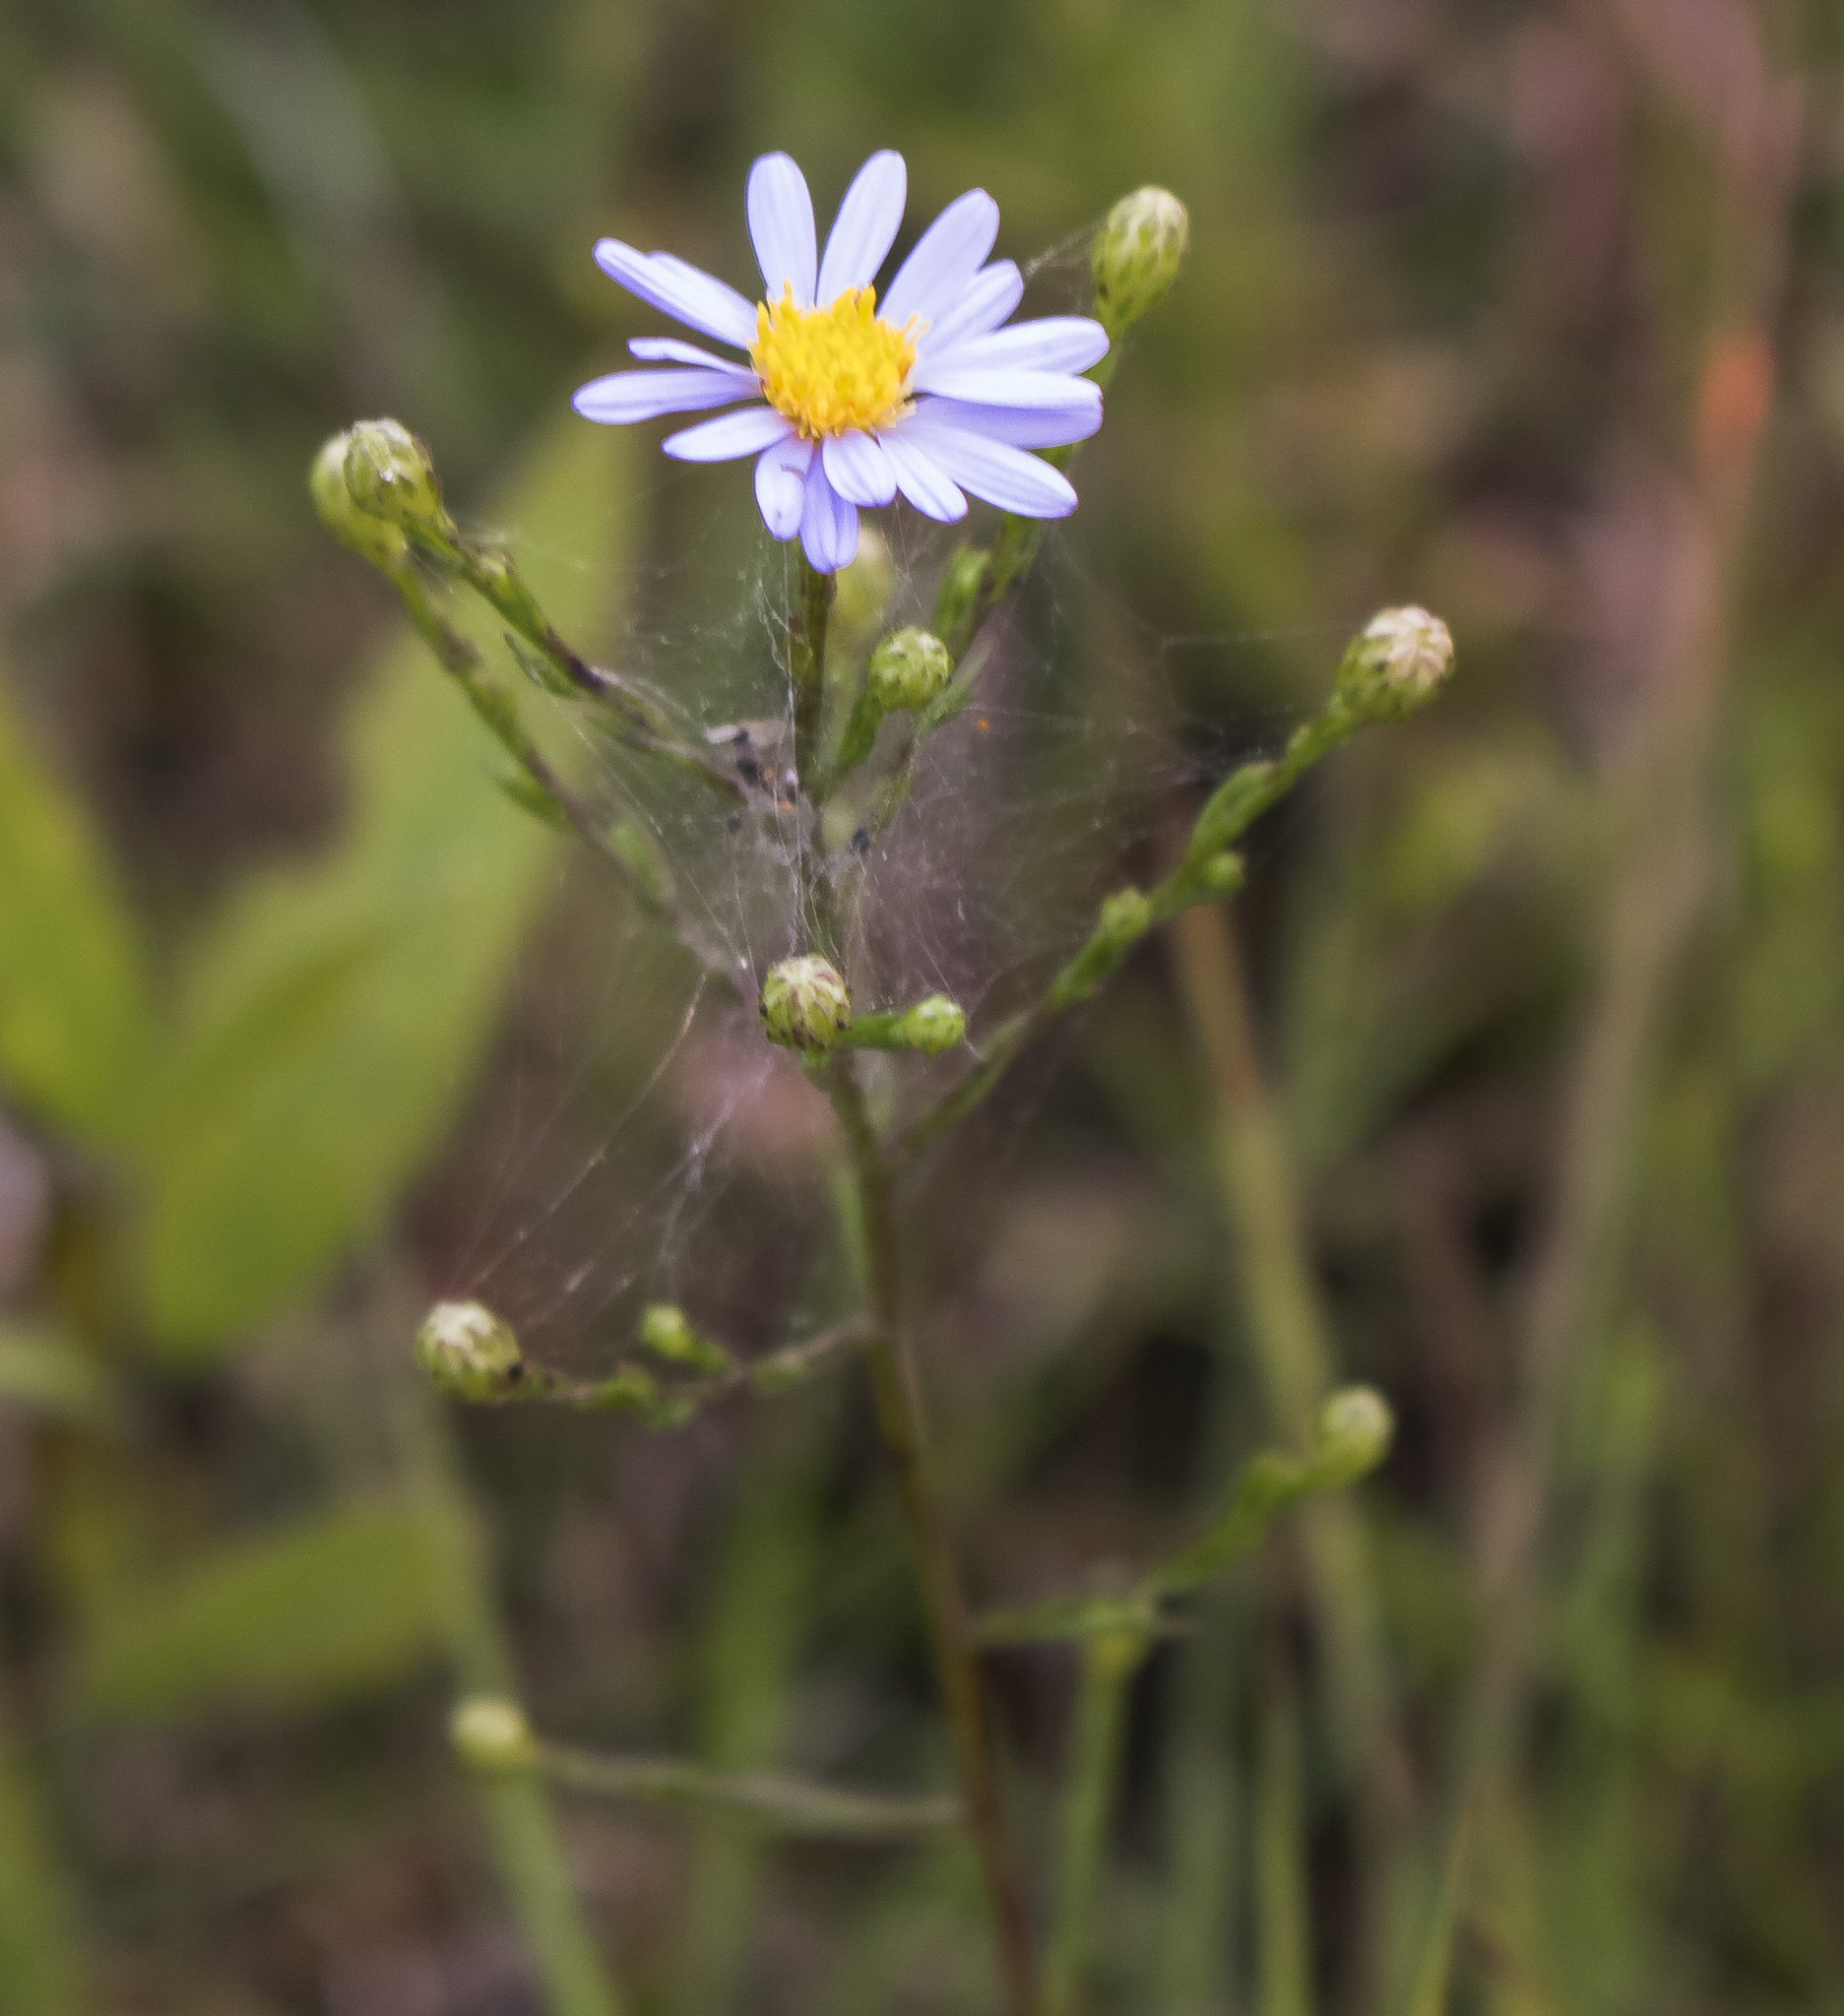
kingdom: Plantae
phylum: Tracheophyta
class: Magnoliopsida
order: Asterales
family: Asteraceae
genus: Symphyotrichum
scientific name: Symphyotrichum oolentangiense
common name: Azure aster
